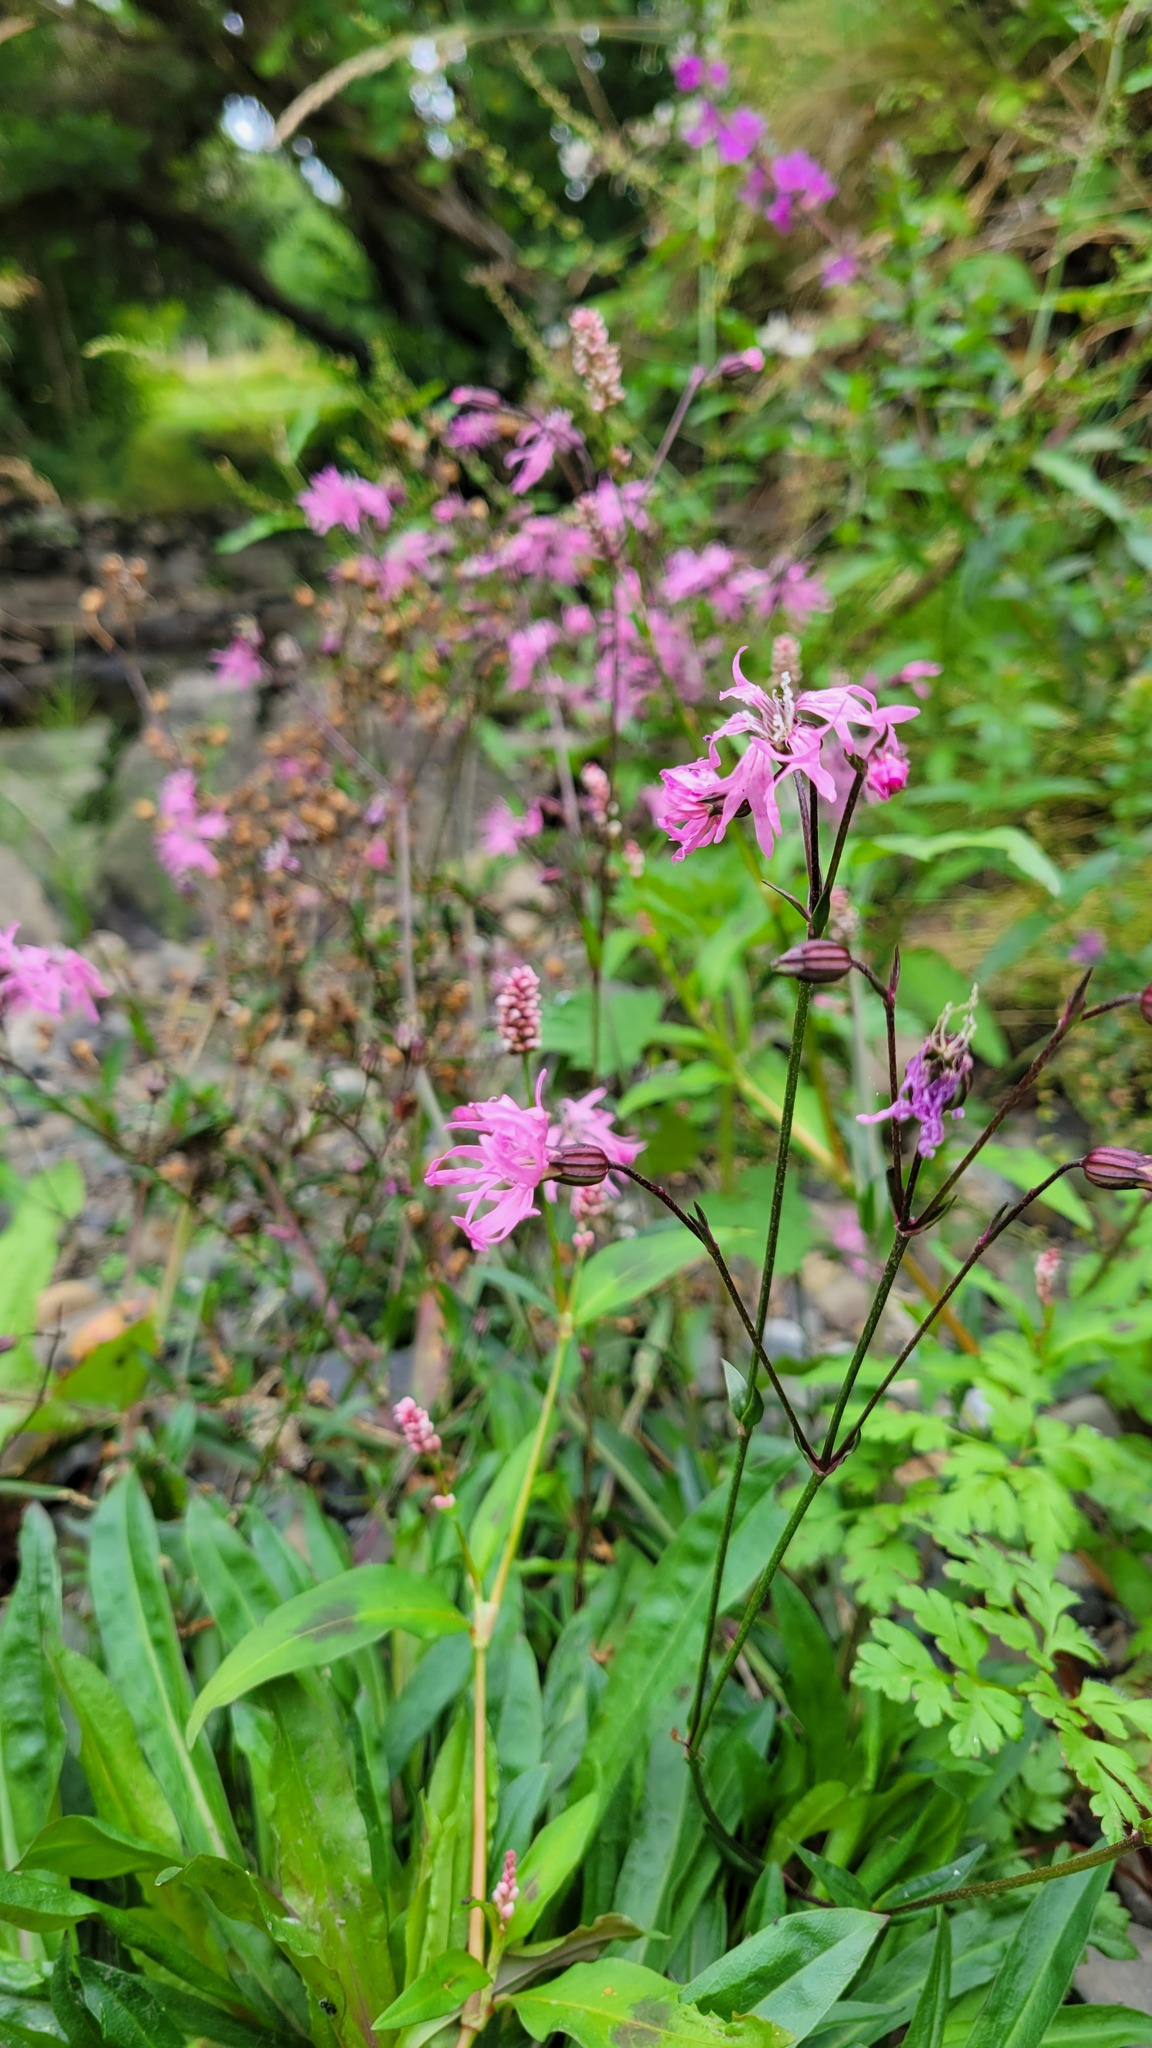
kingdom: Plantae
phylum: Tracheophyta
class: Magnoliopsida
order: Caryophyllales
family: Caryophyllaceae
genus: Silene
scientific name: Silene flos-cuculi
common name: Ragged-robin
